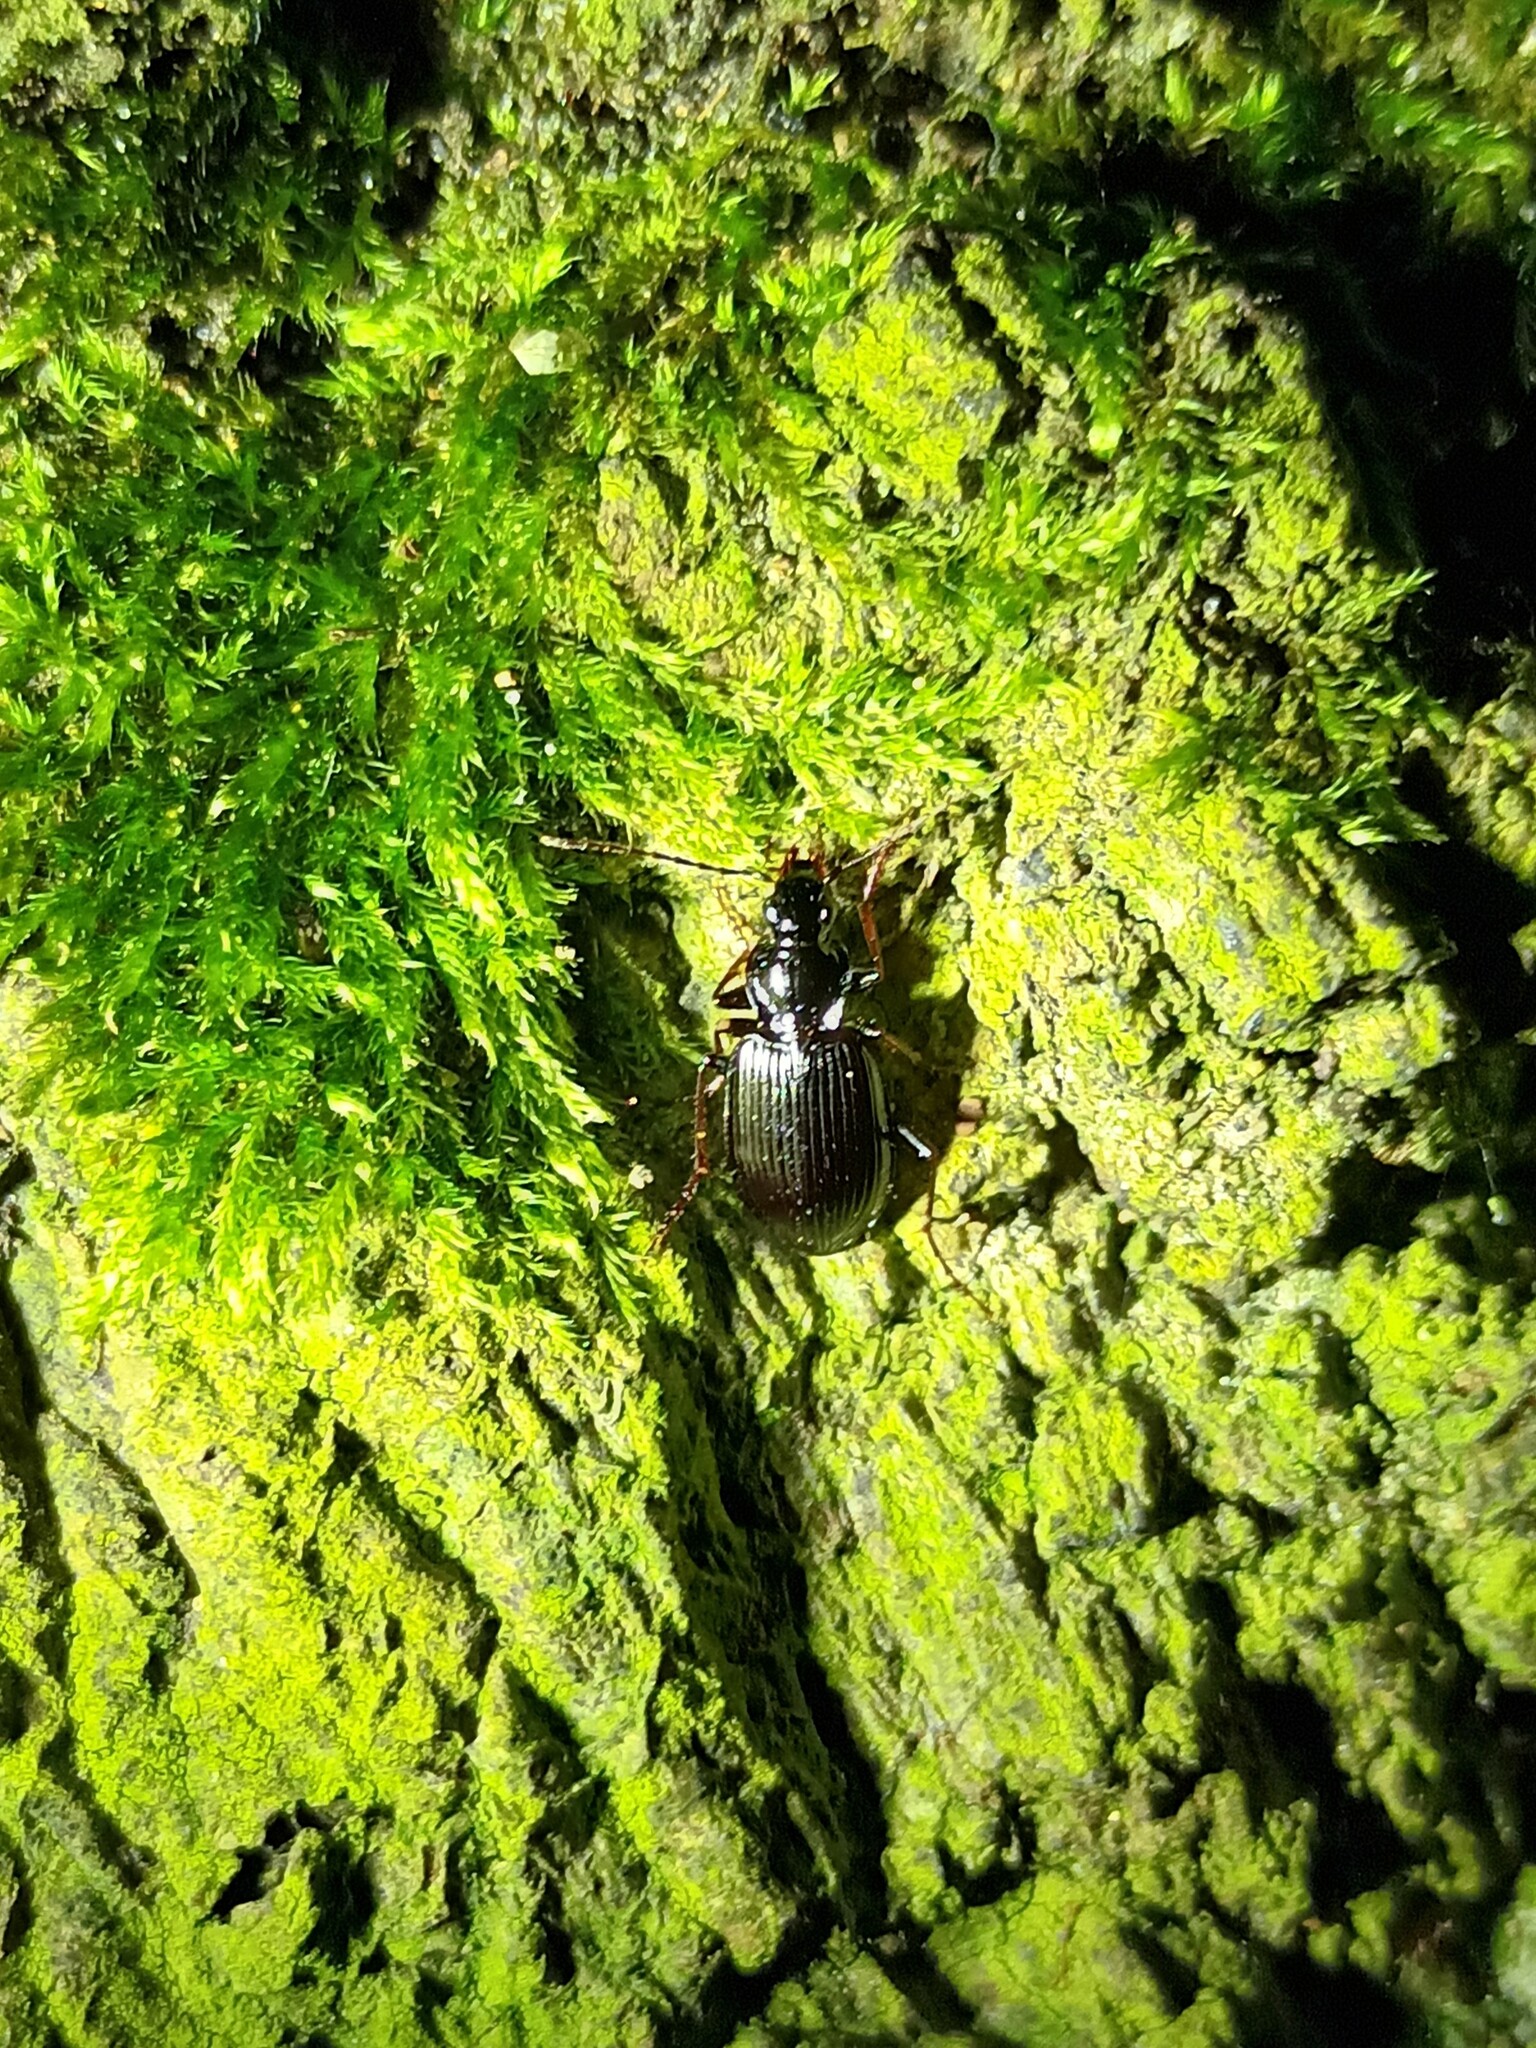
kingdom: Animalia
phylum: Arthropoda
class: Insecta
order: Coleoptera
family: Carabidae
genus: Platynus
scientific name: Platynus assimilis
